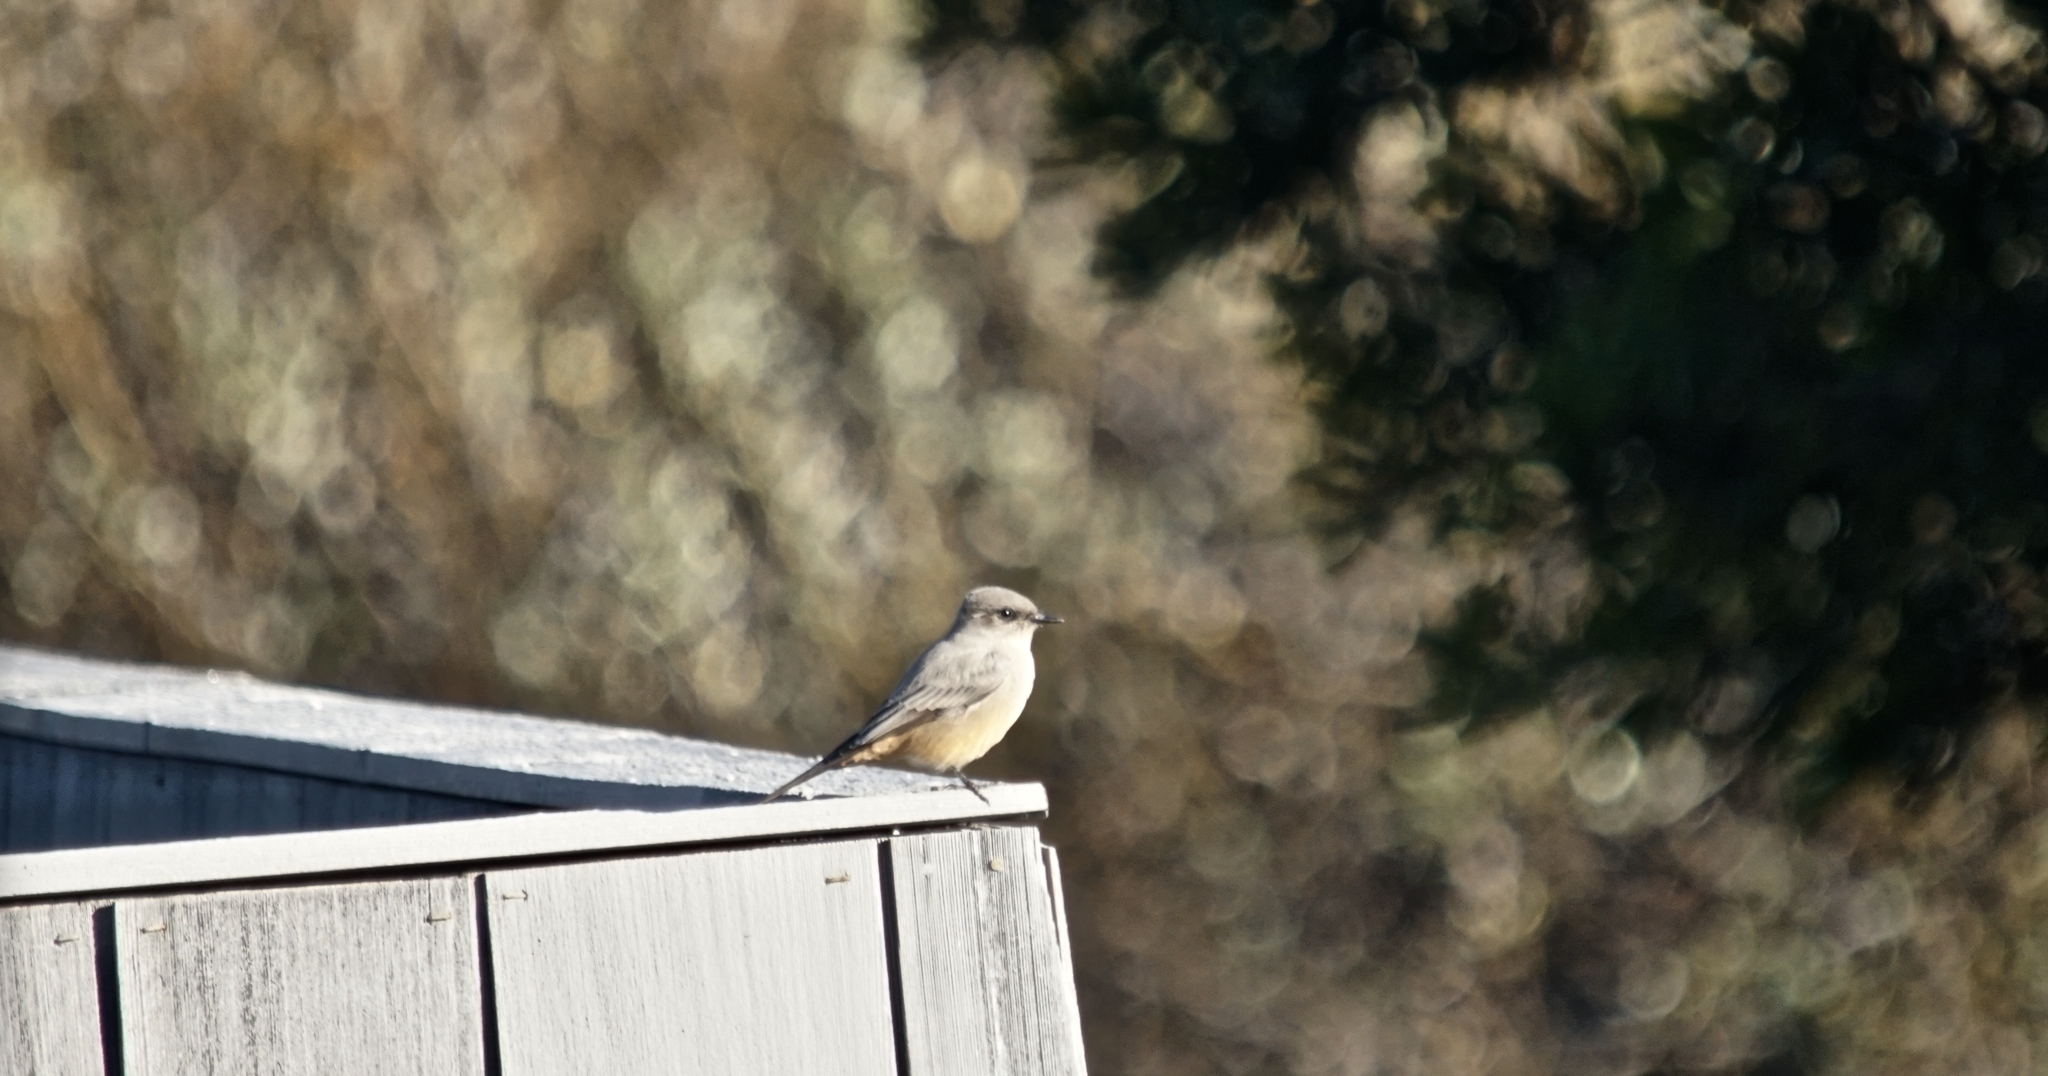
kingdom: Animalia
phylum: Chordata
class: Aves
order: Passeriformes
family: Tyrannidae
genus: Sayornis
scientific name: Sayornis saya
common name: Say's phoebe
